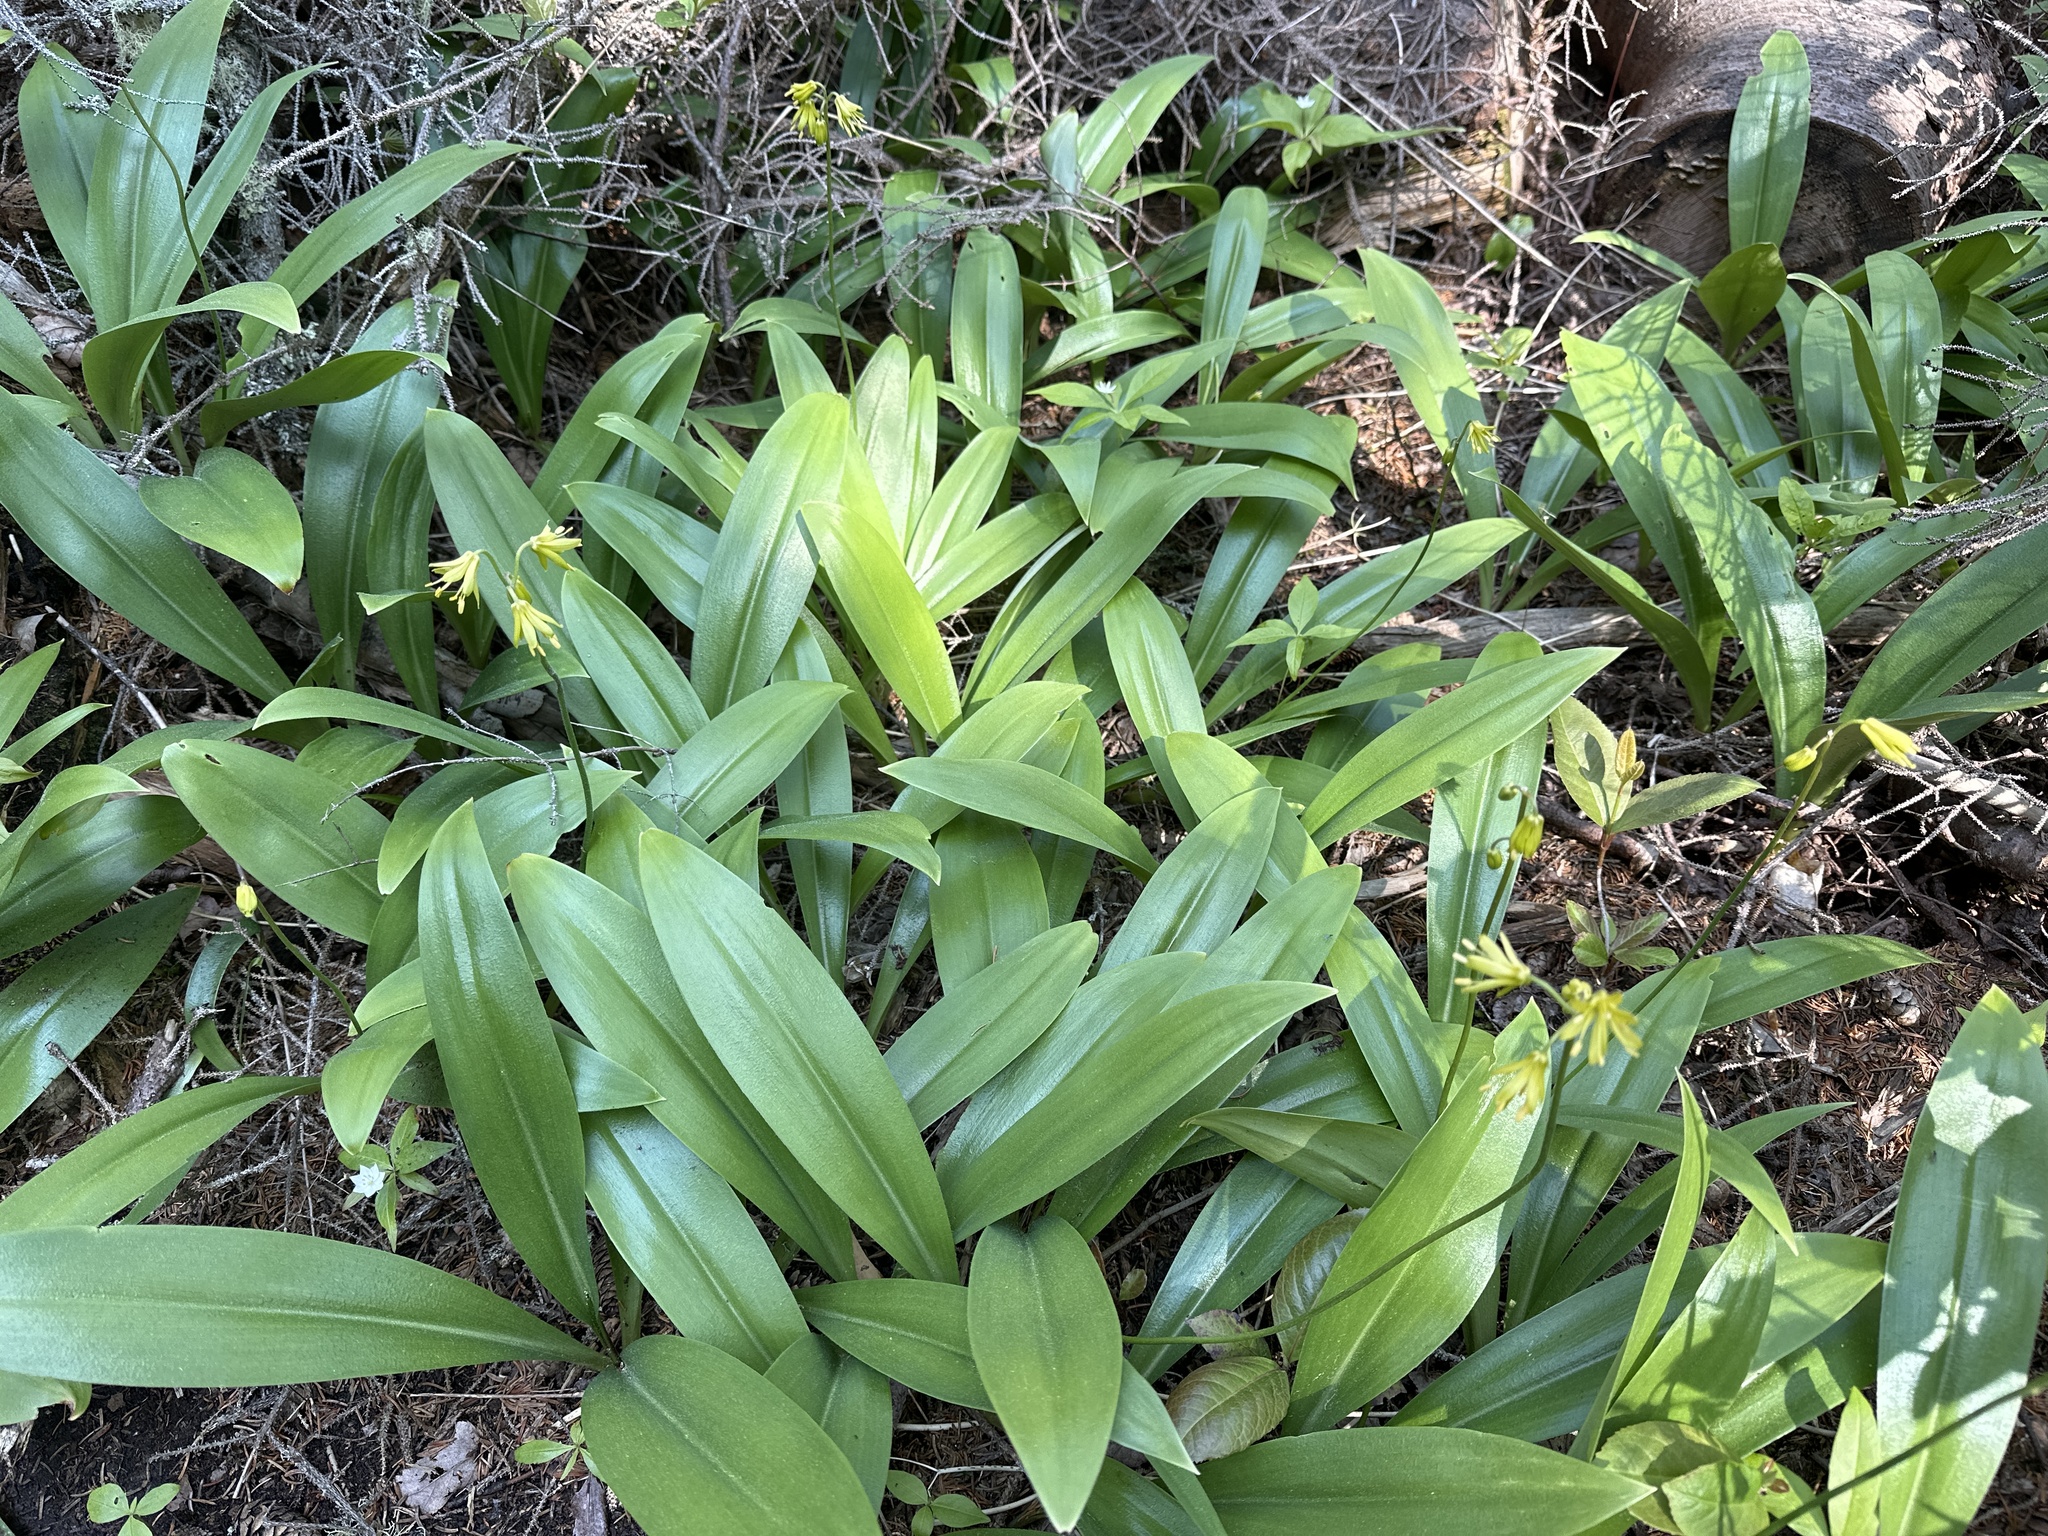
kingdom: Plantae
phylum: Tracheophyta
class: Liliopsida
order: Liliales
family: Liliaceae
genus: Clintonia
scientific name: Clintonia borealis
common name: Yellow clintonia
